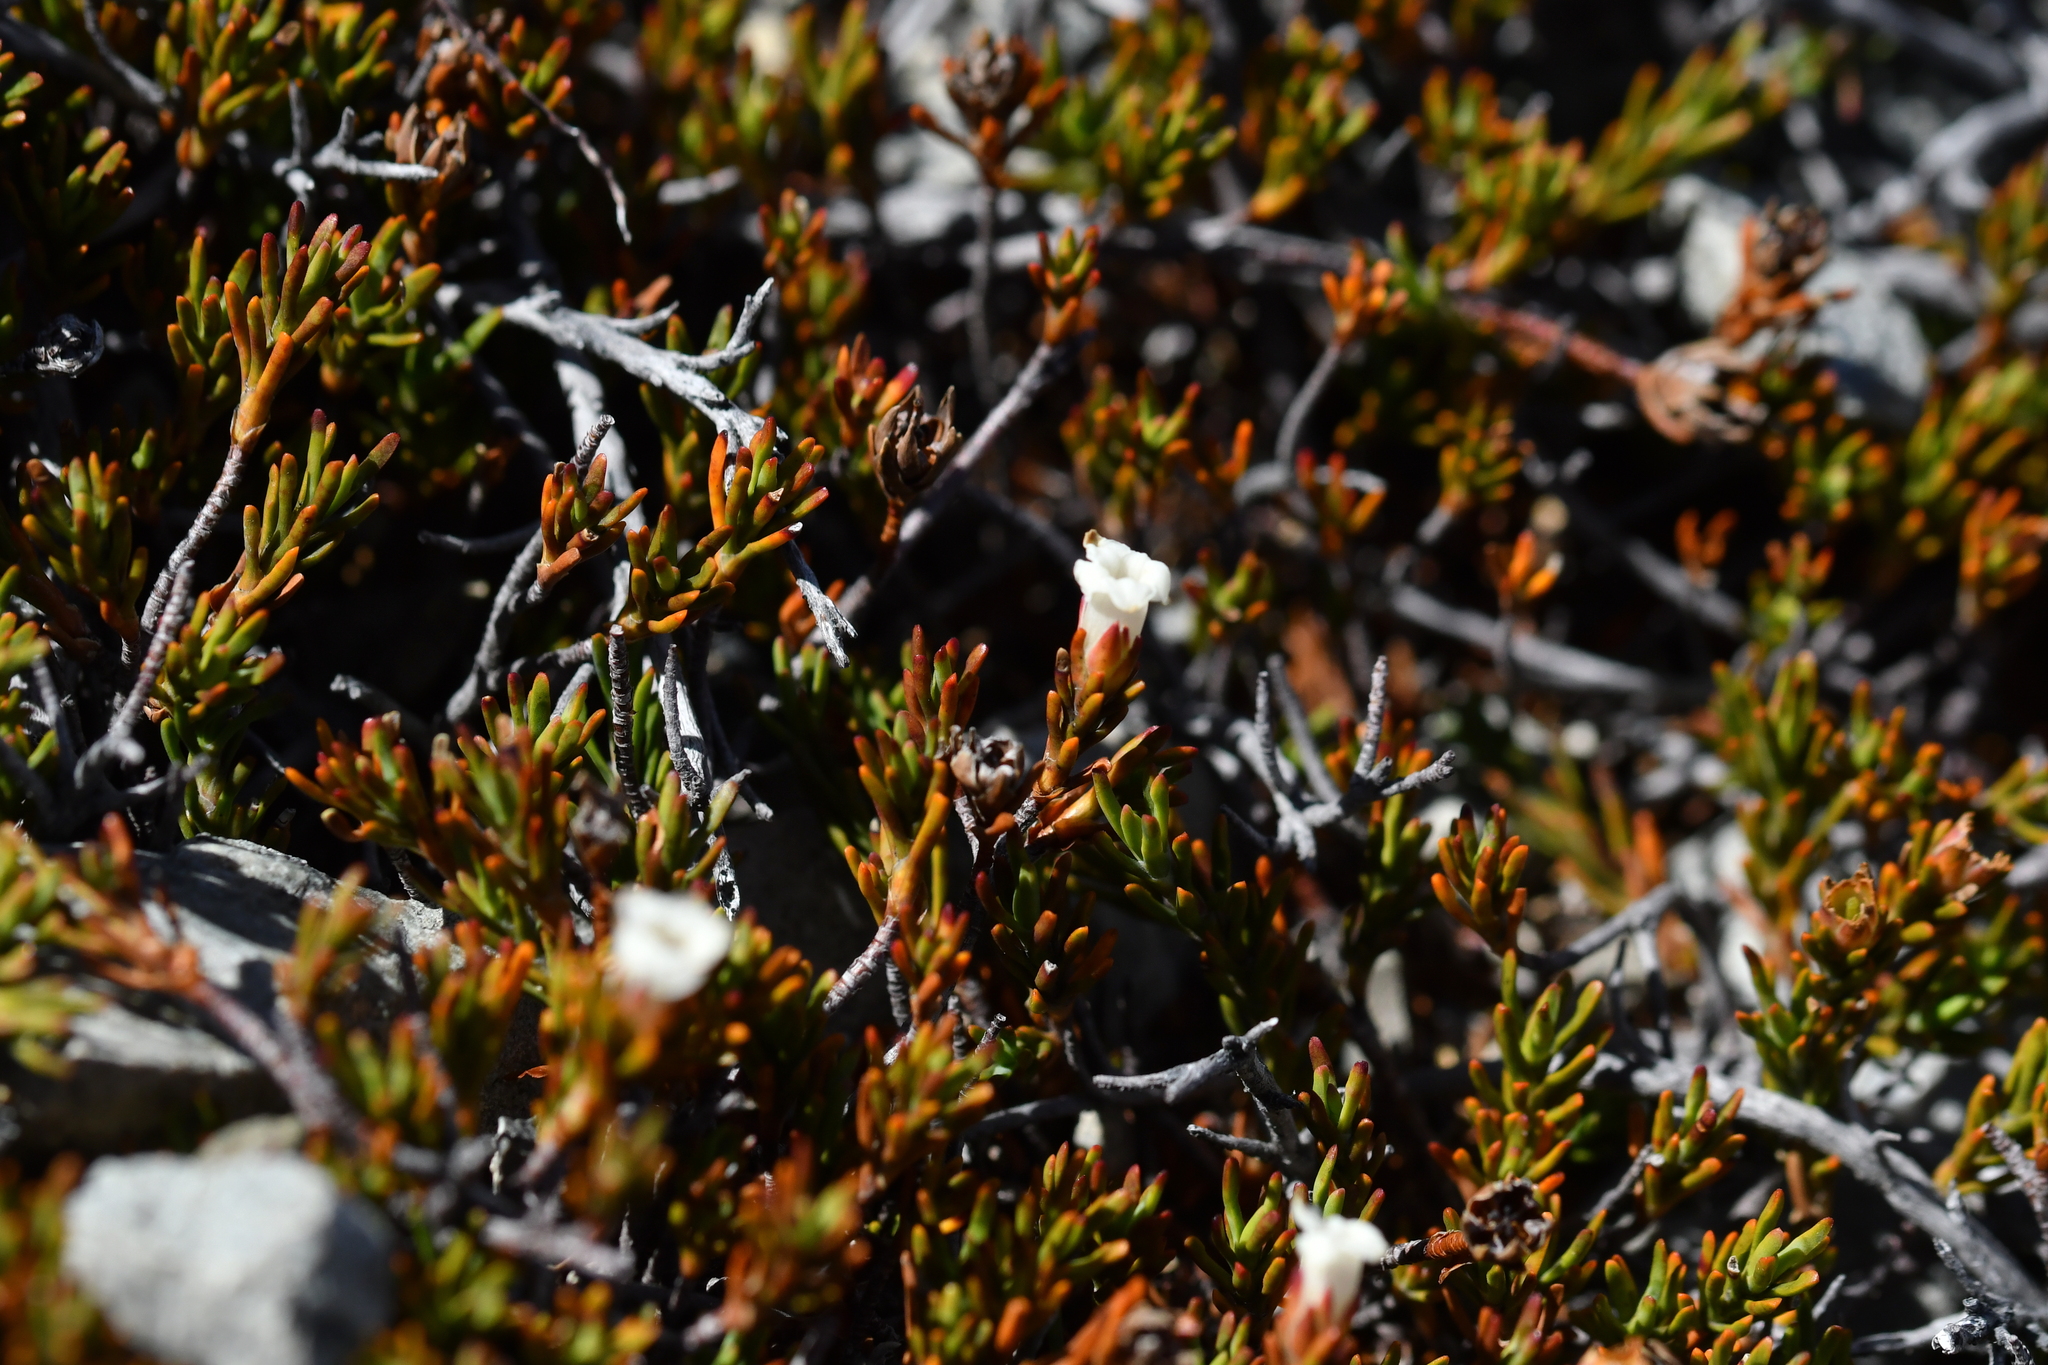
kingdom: Plantae
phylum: Tracheophyta
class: Magnoliopsida
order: Ericales
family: Ericaceae
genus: Dracophyllum
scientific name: Dracophyllum pronum
